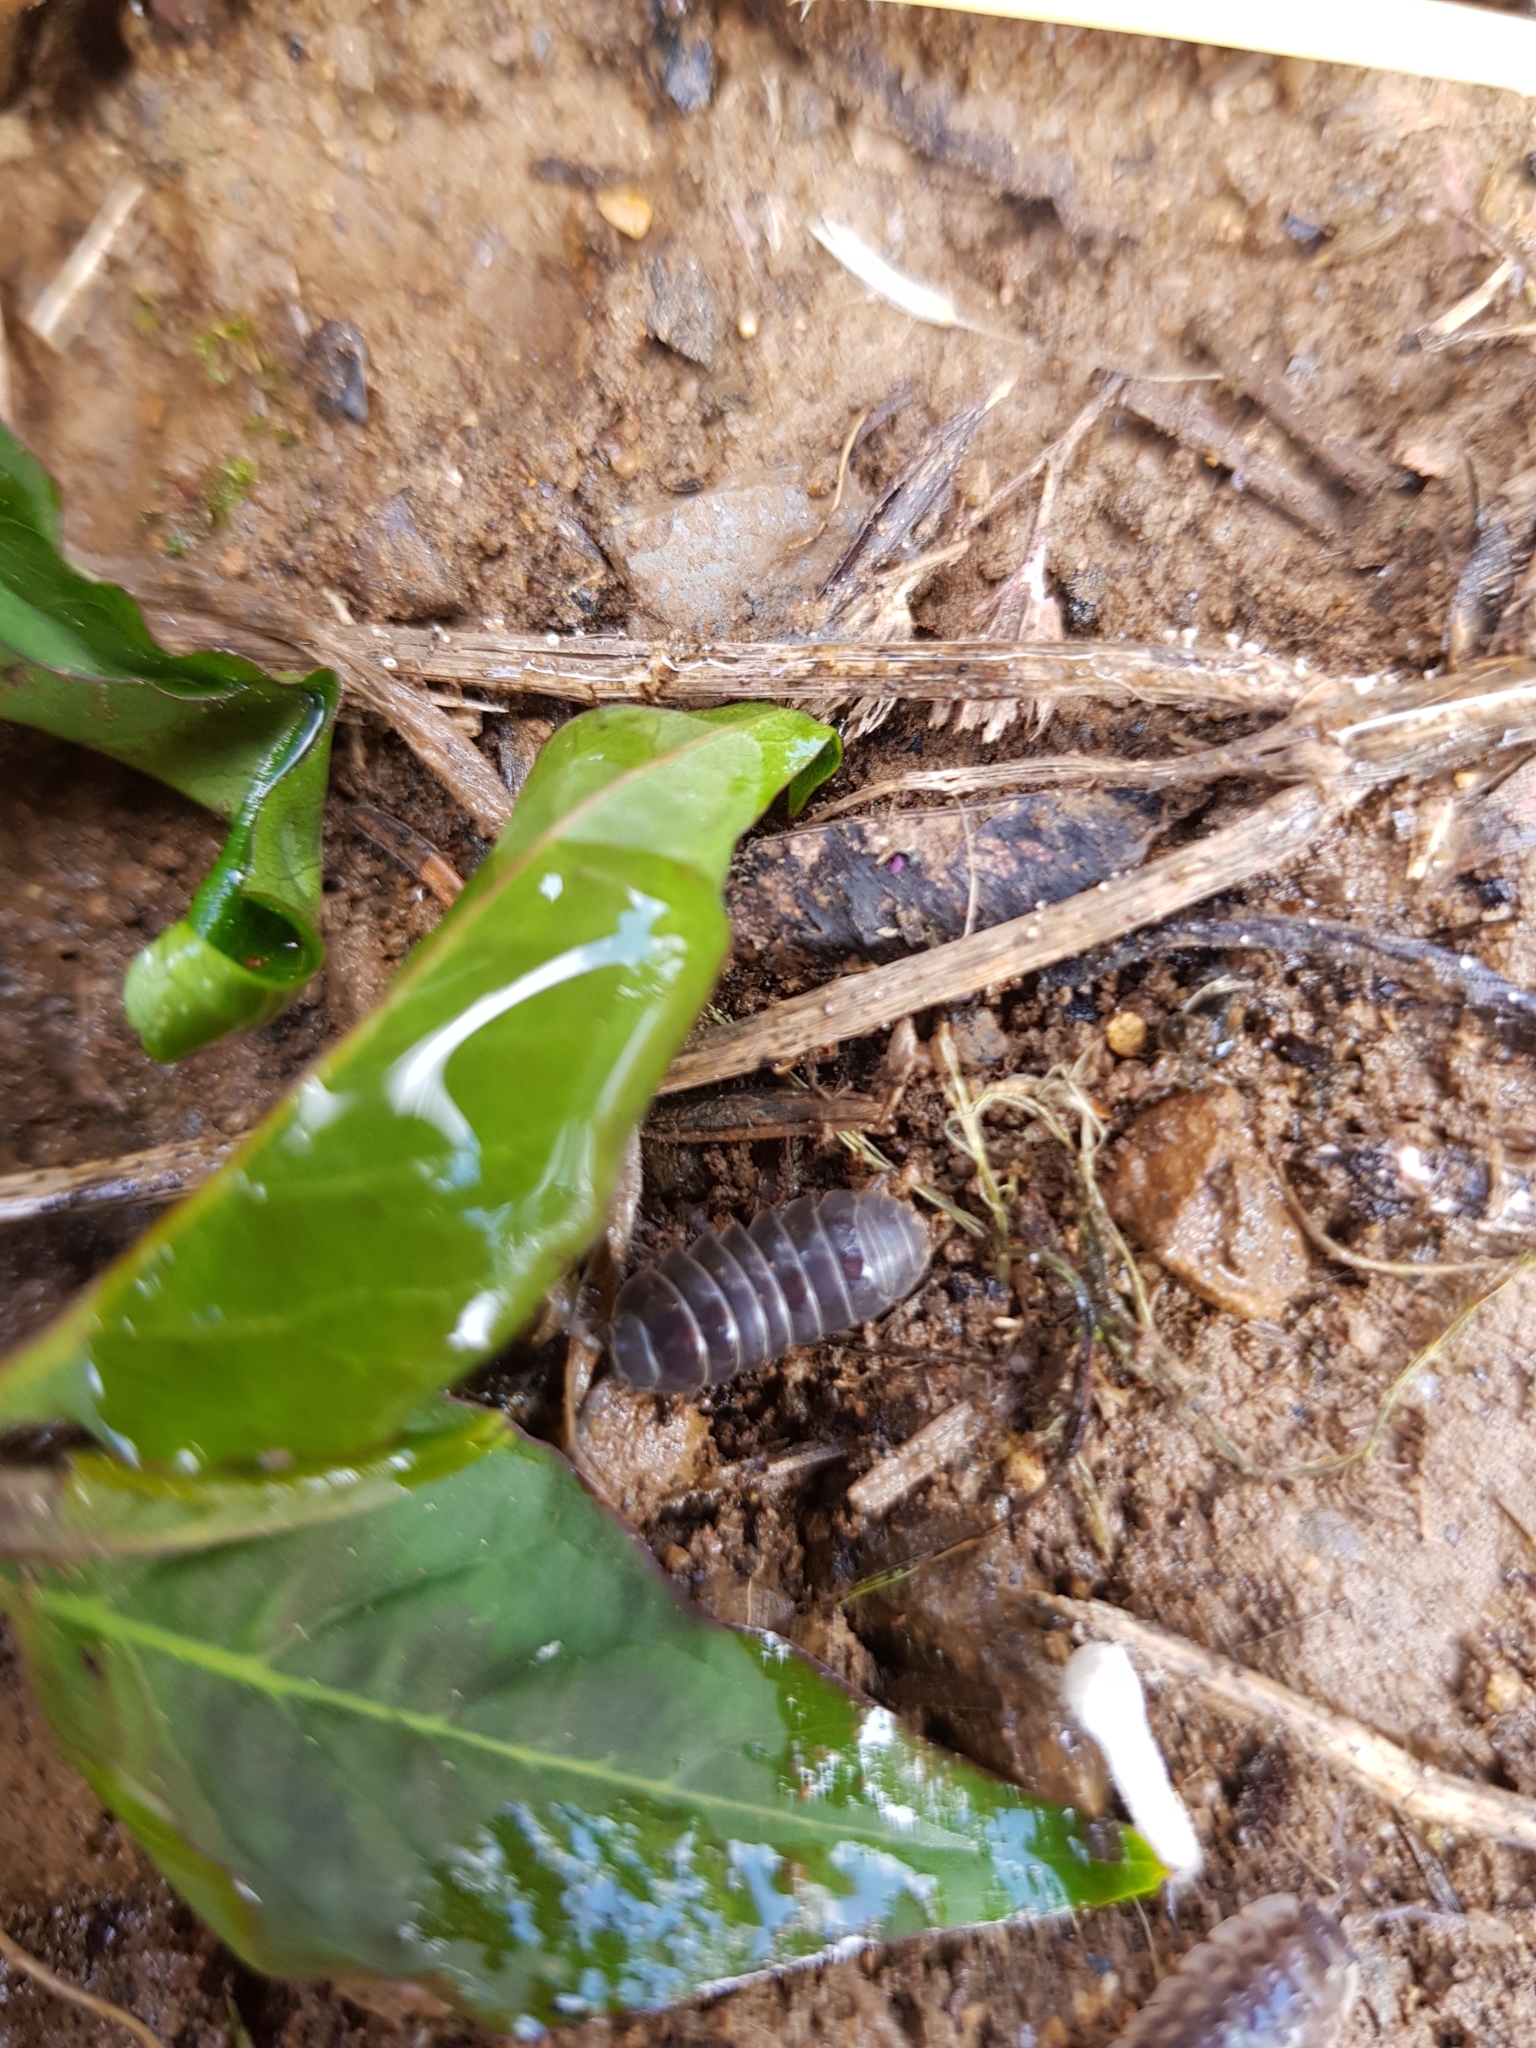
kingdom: Animalia
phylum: Arthropoda
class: Malacostraca
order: Isopoda
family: Armadillidiidae
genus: Armadillidium
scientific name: Armadillidium vulgare
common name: Common pill woodlouse
